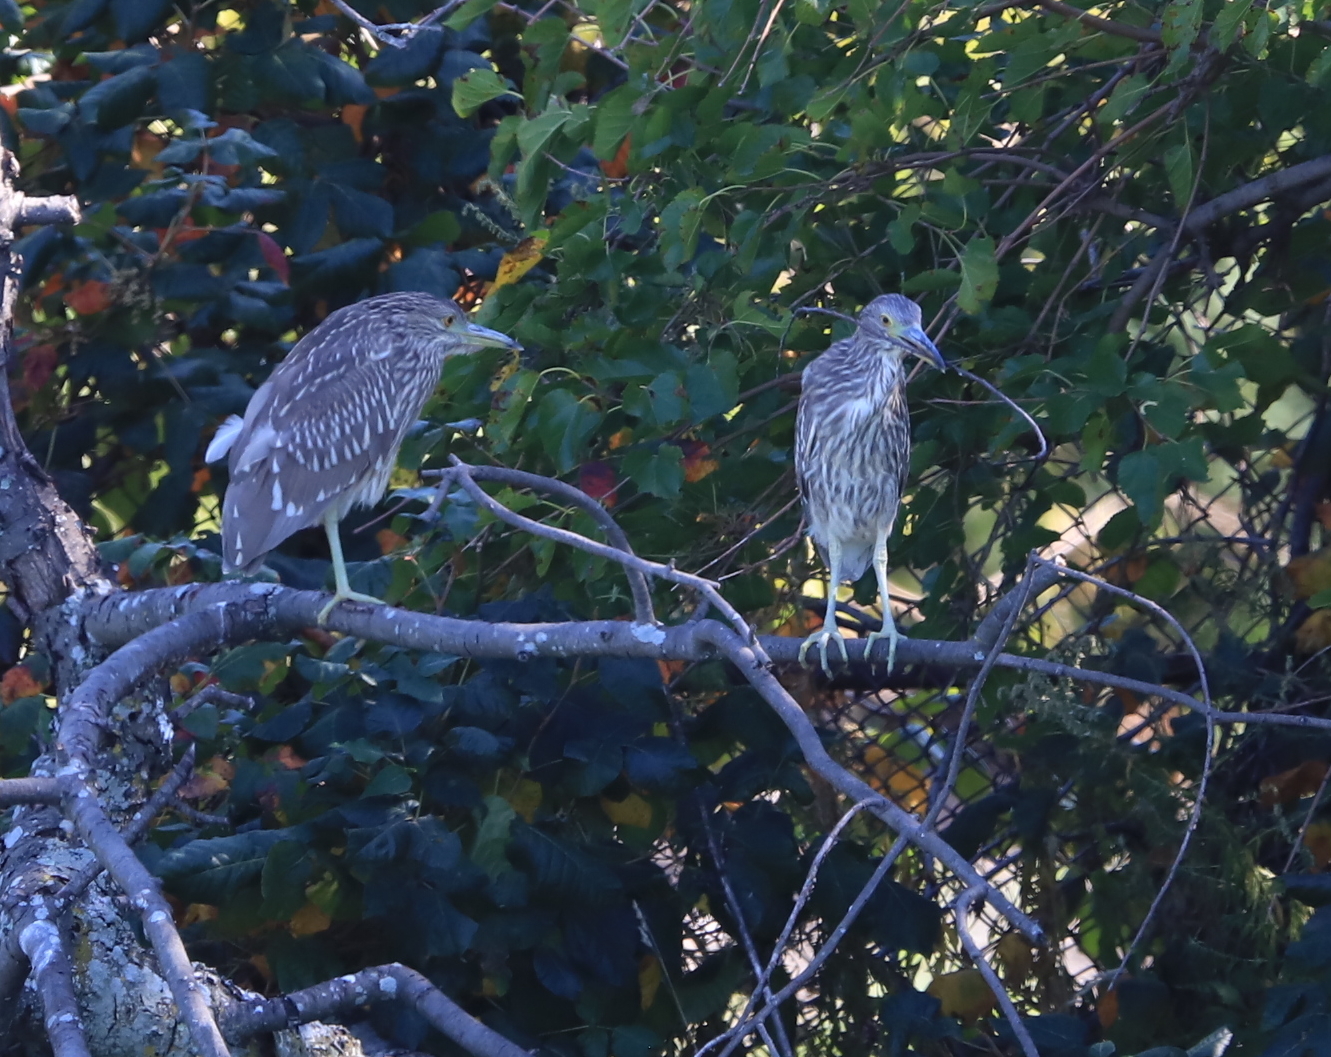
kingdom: Animalia
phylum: Chordata
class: Aves
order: Pelecaniformes
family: Ardeidae
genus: Nycticorax
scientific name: Nycticorax nycticorax
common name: Black-crowned night heron
